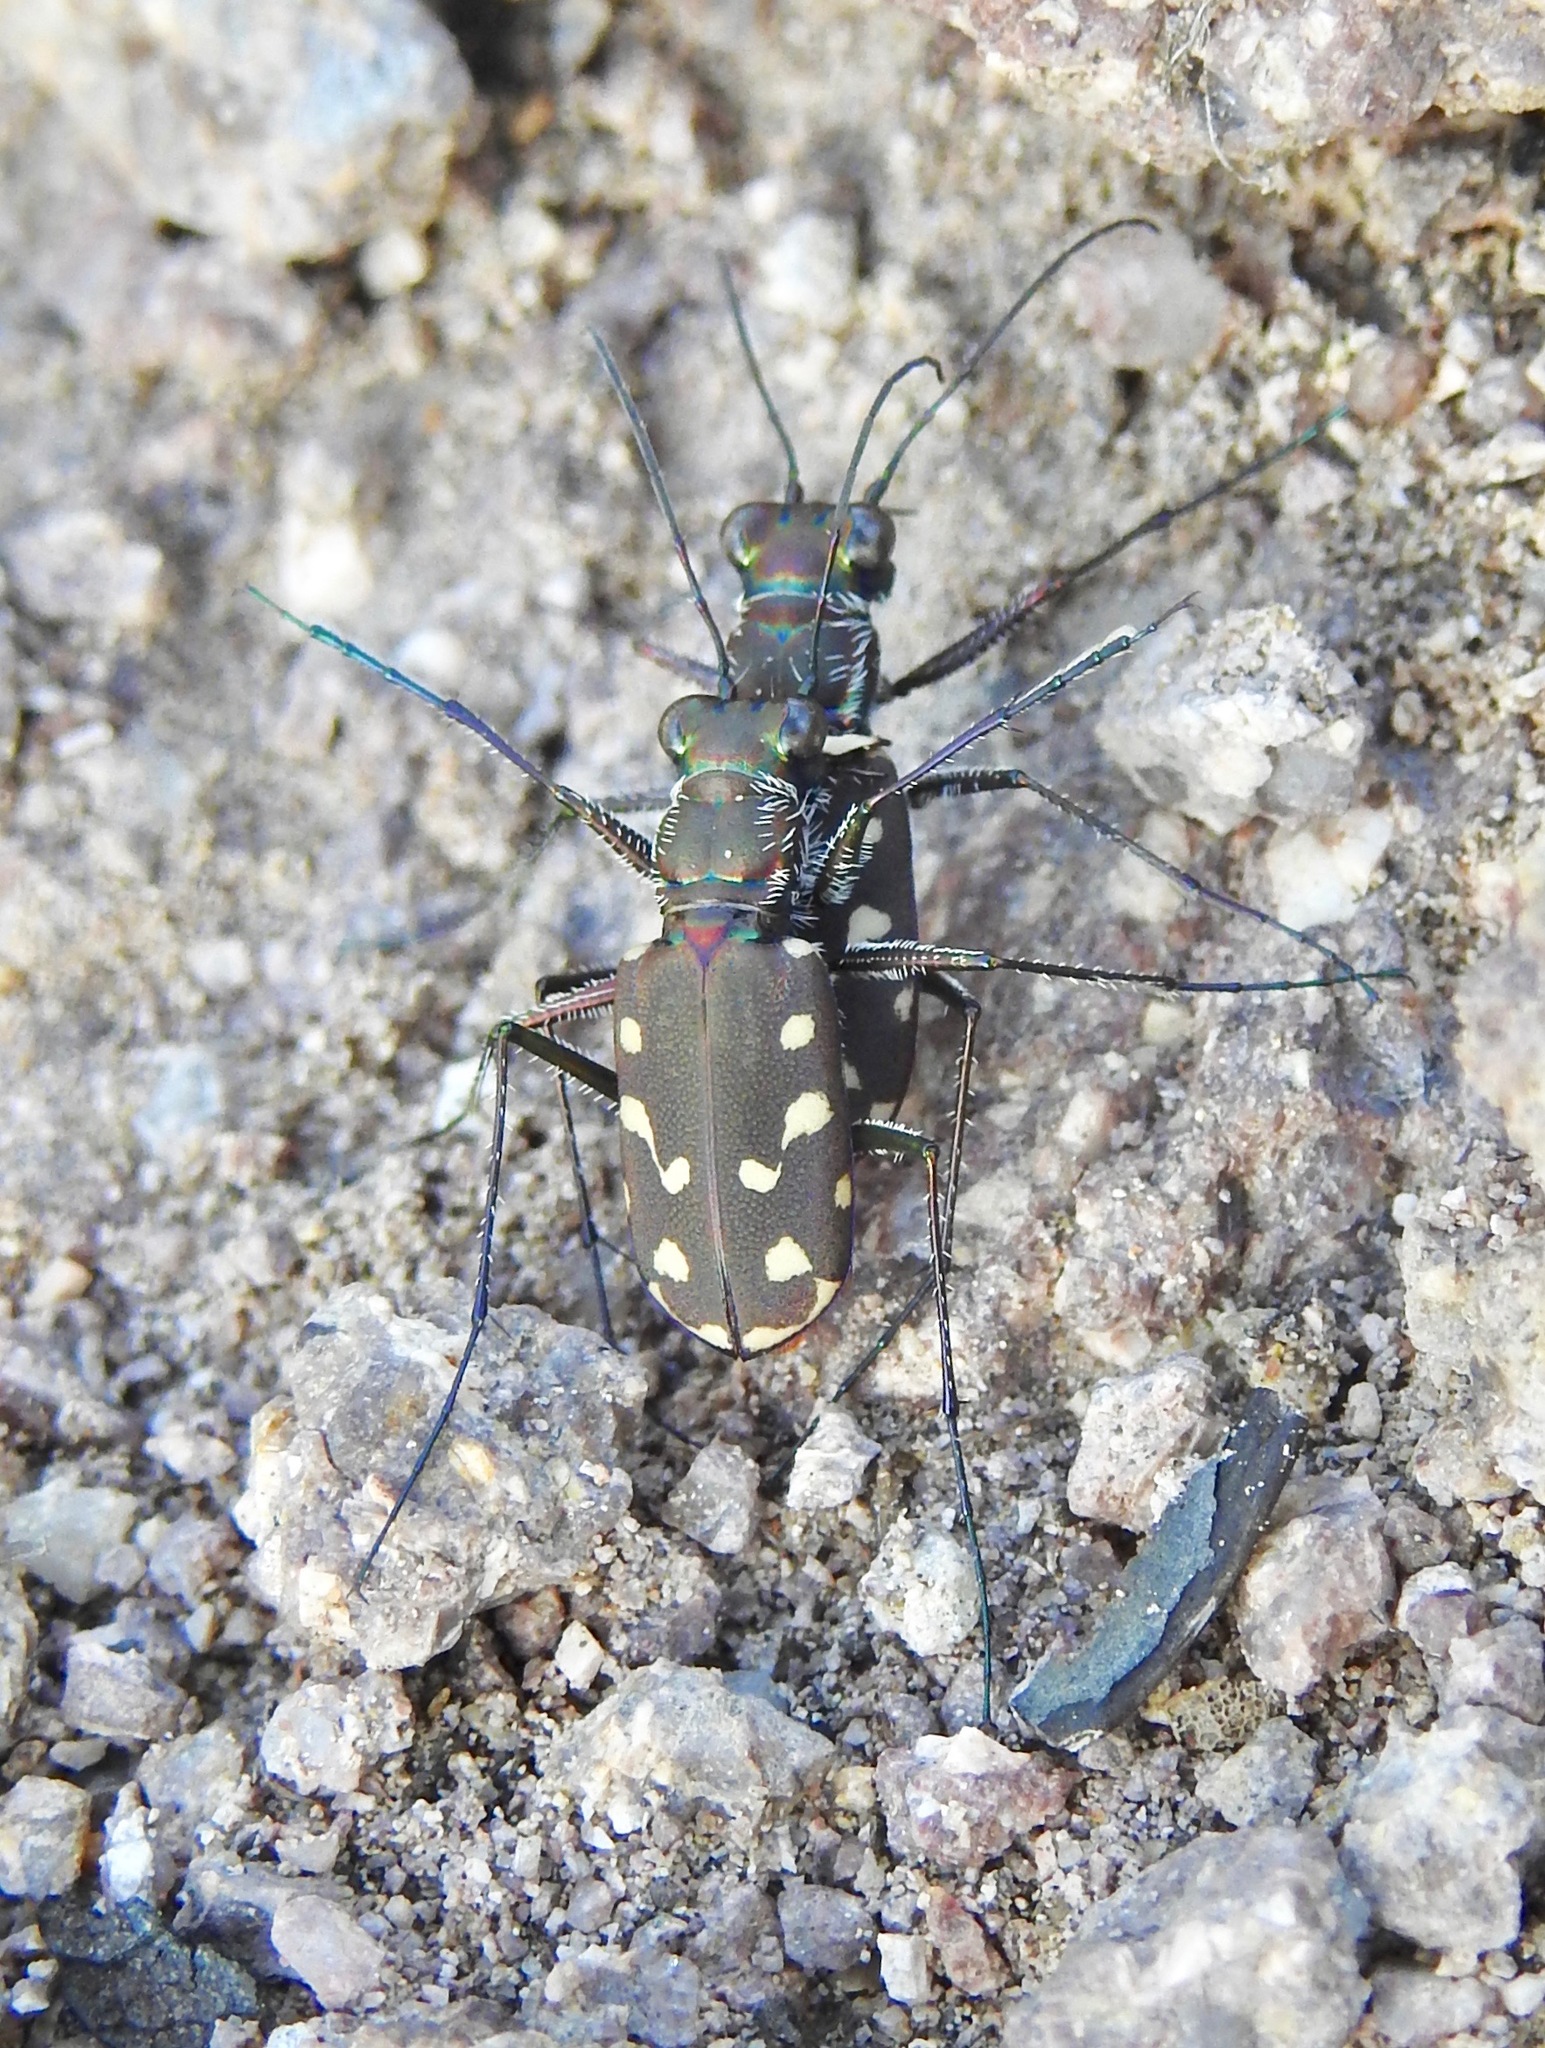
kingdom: Animalia
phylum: Arthropoda
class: Insecta
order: Coleoptera
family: Carabidae
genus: Cicindela
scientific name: Cicindela sedecimpunctata
